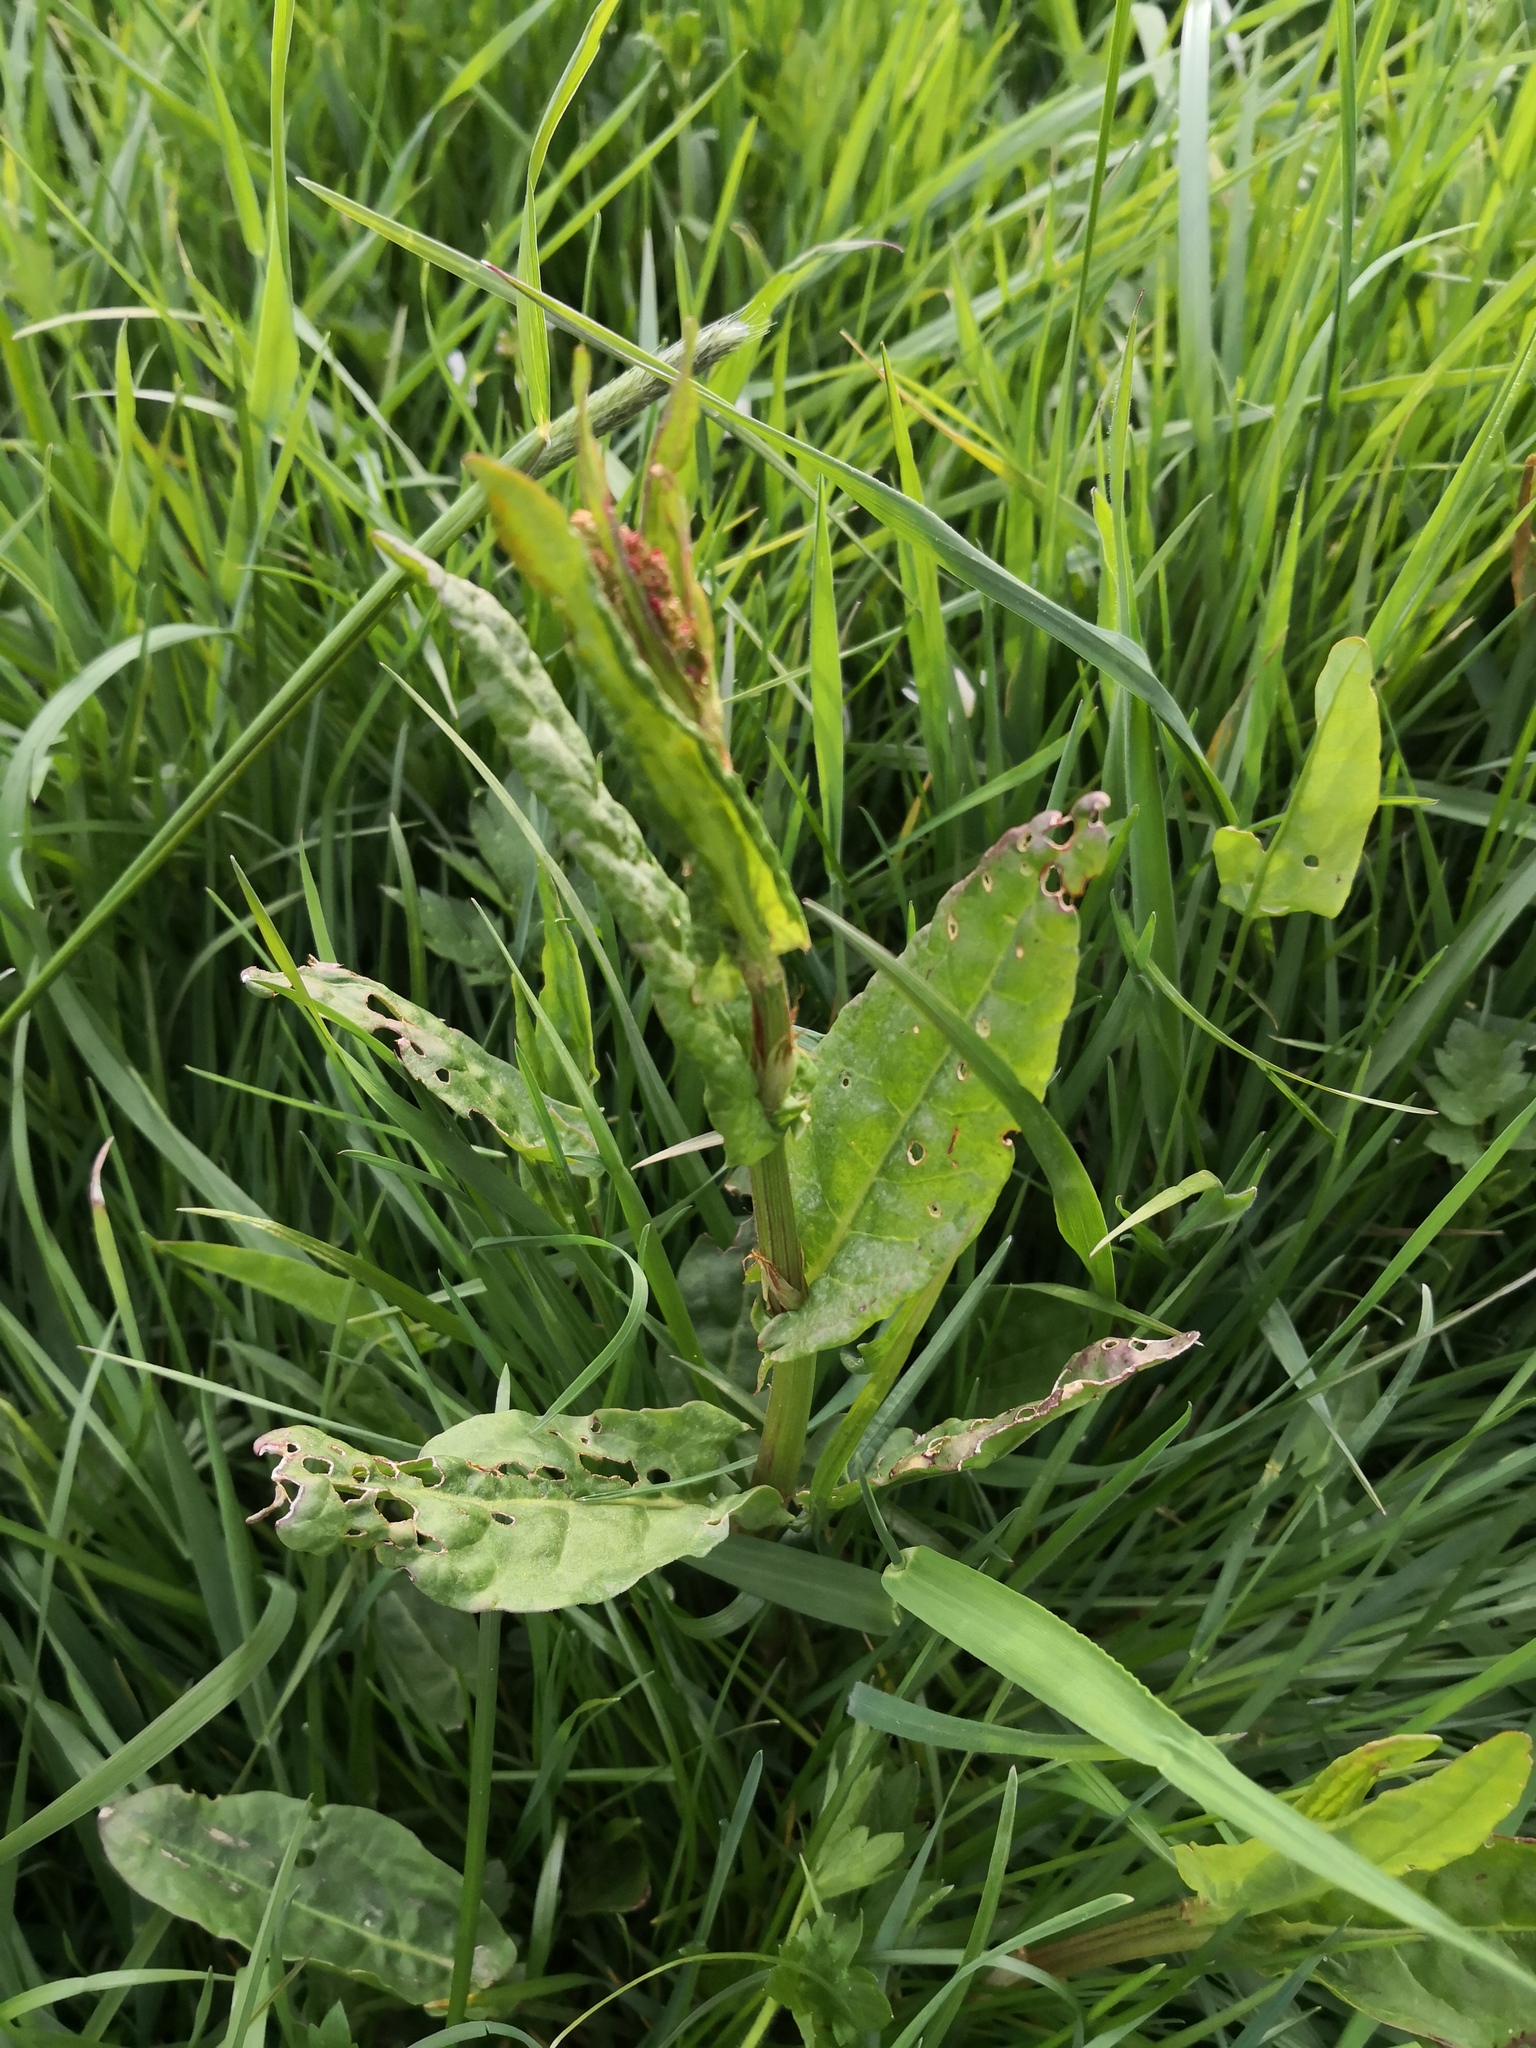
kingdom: Plantae
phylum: Tracheophyta
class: Magnoliopsida
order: Caryophyllales
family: Polygonaceae
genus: Rumex
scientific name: Rumex acetosa
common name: Garden sorrel
